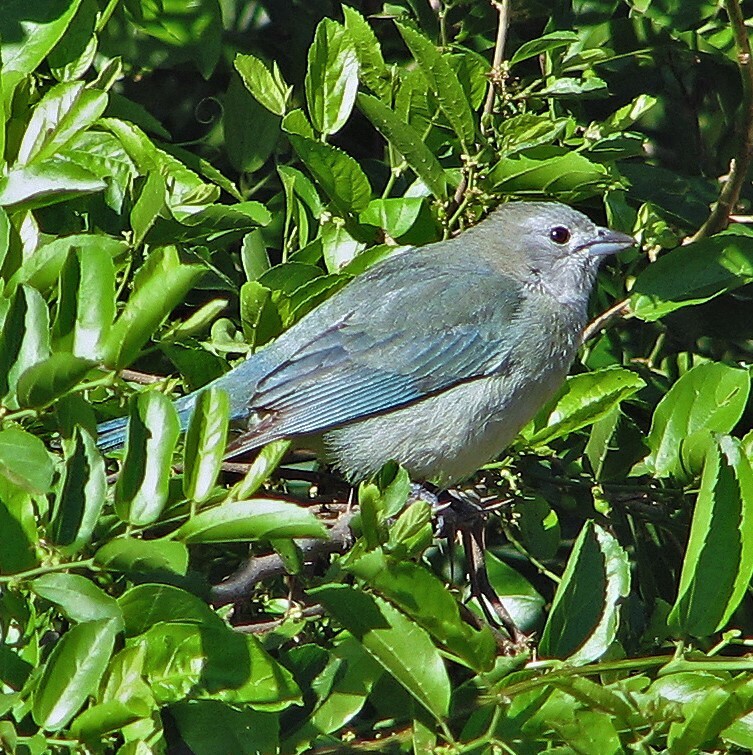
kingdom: Animalia
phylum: Chordata
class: Aves
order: Passeriformes
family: Thraupidae
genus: Thraupis
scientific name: Thraupis sayaca
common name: Sayaca tanager
